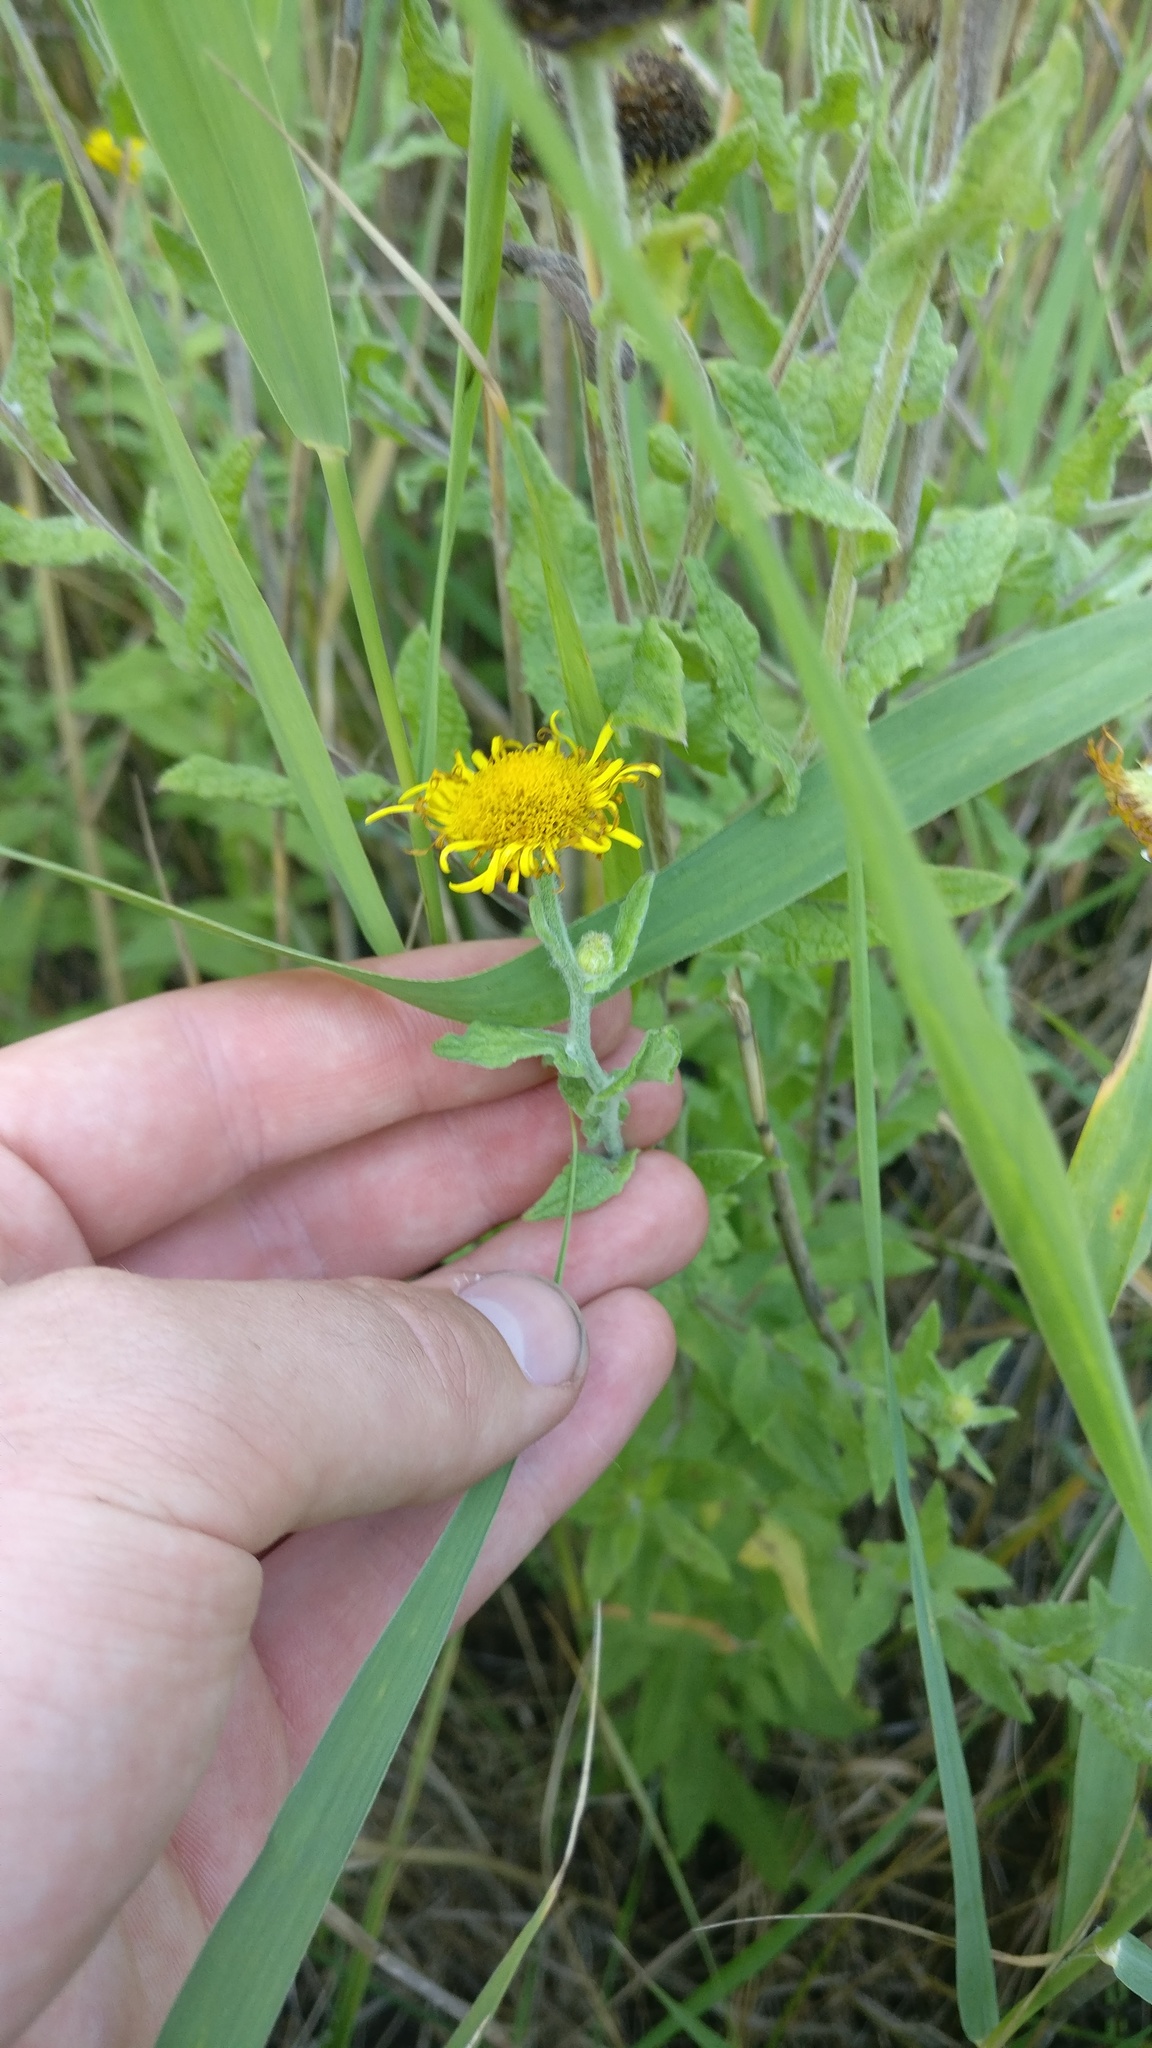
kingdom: Plantae
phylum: Tracheophyta
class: Magnoliopsida
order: Asterales
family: Asteraceae
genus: Pulicaria
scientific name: Pulicaria dysenterica
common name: Common fleabane
